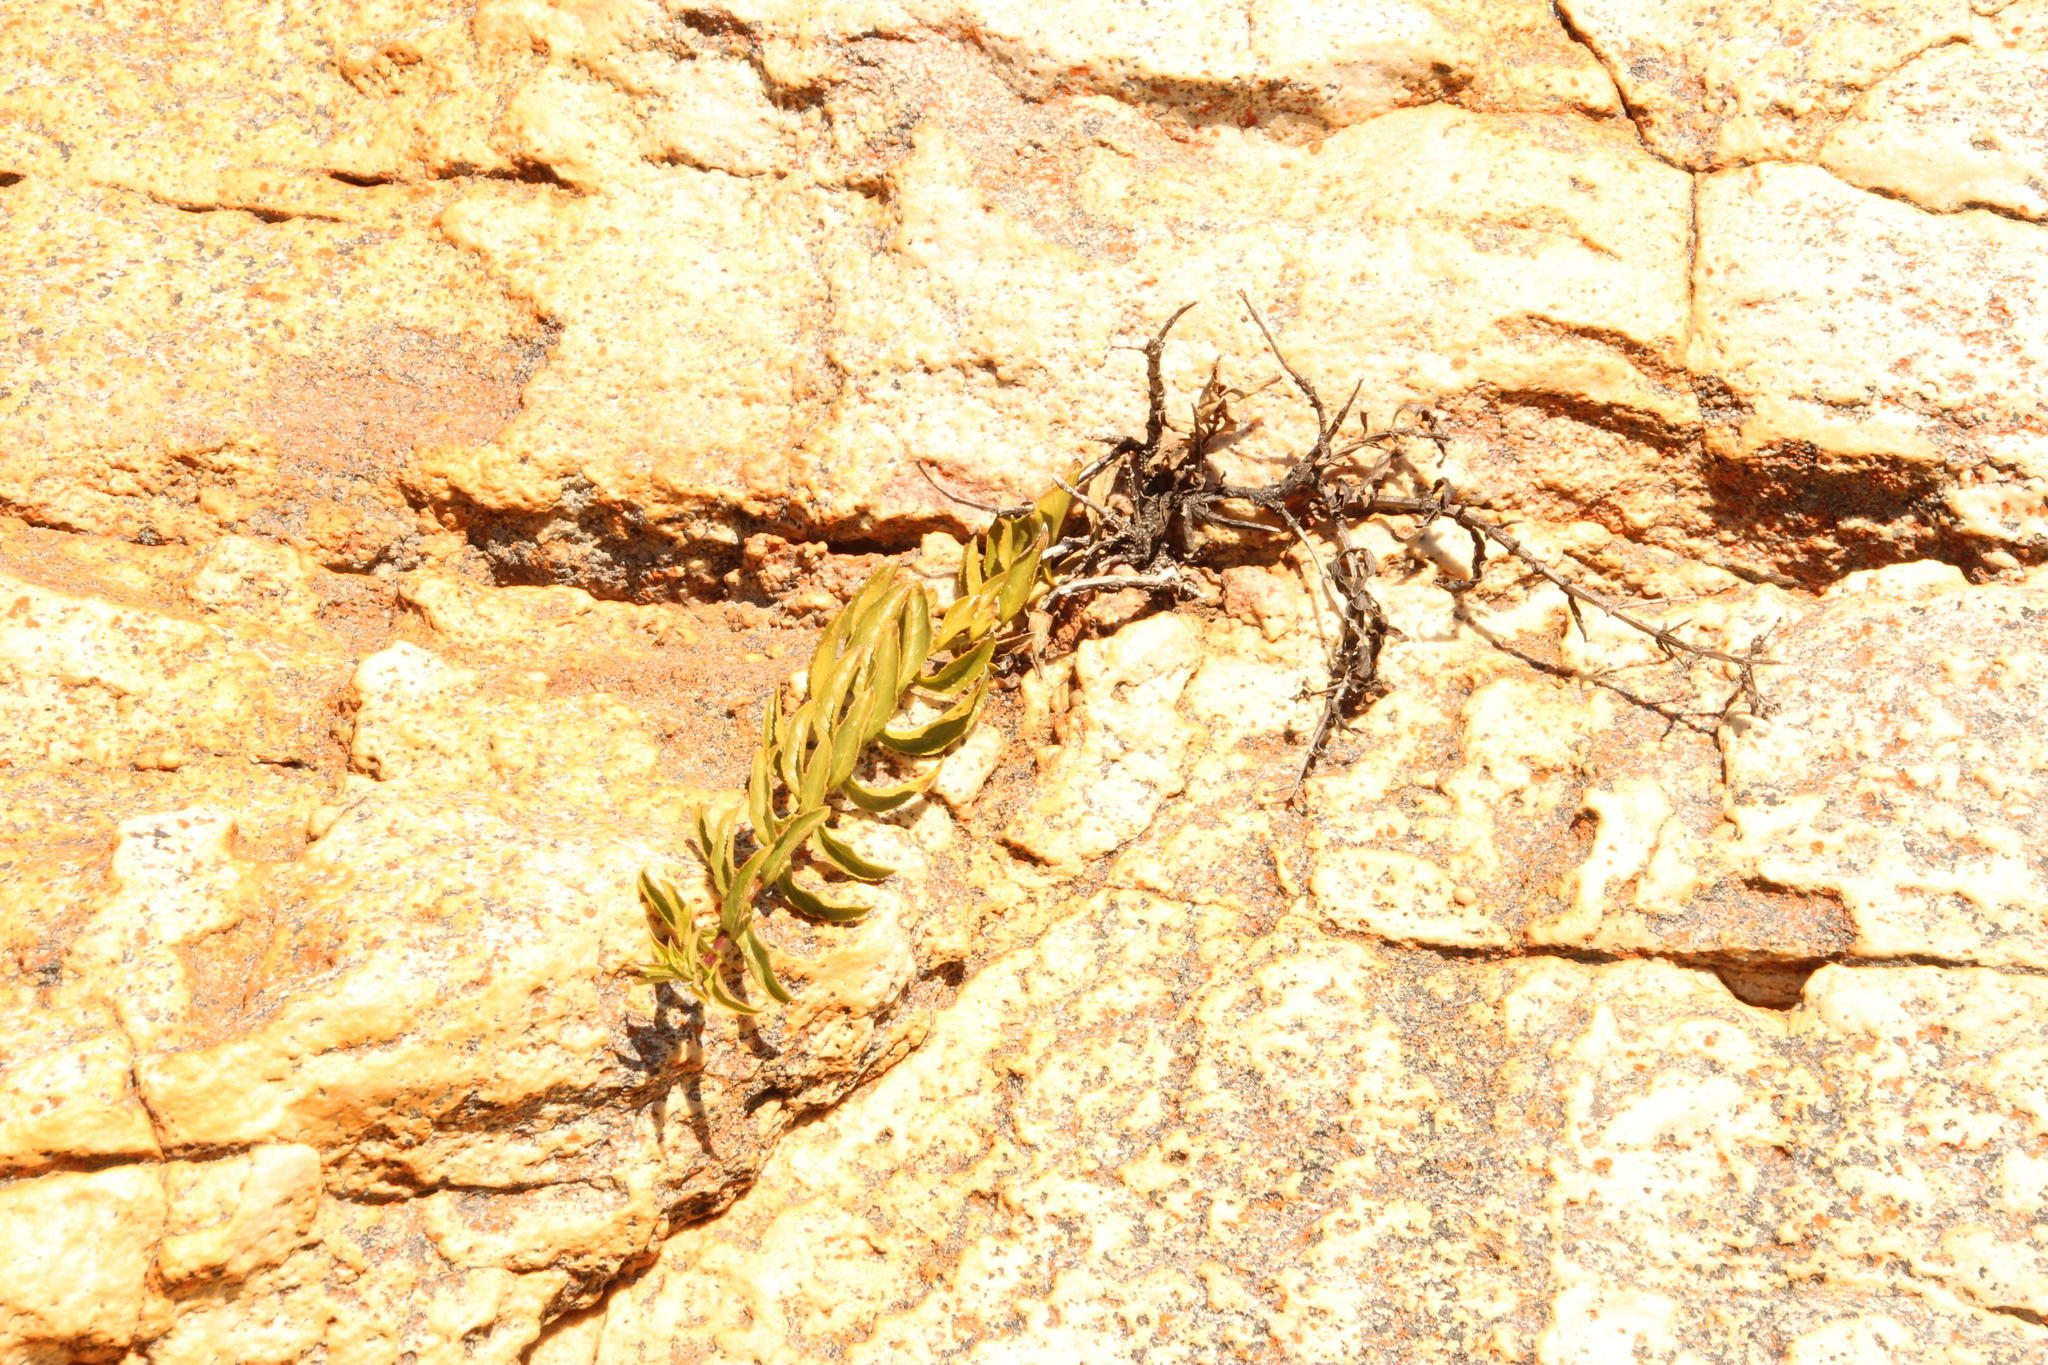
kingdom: Plantae
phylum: Tracheophyta
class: Magnoliopsida
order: Lamiales
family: Scrophulariaceae
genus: Teedia
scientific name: Teedia lucida
